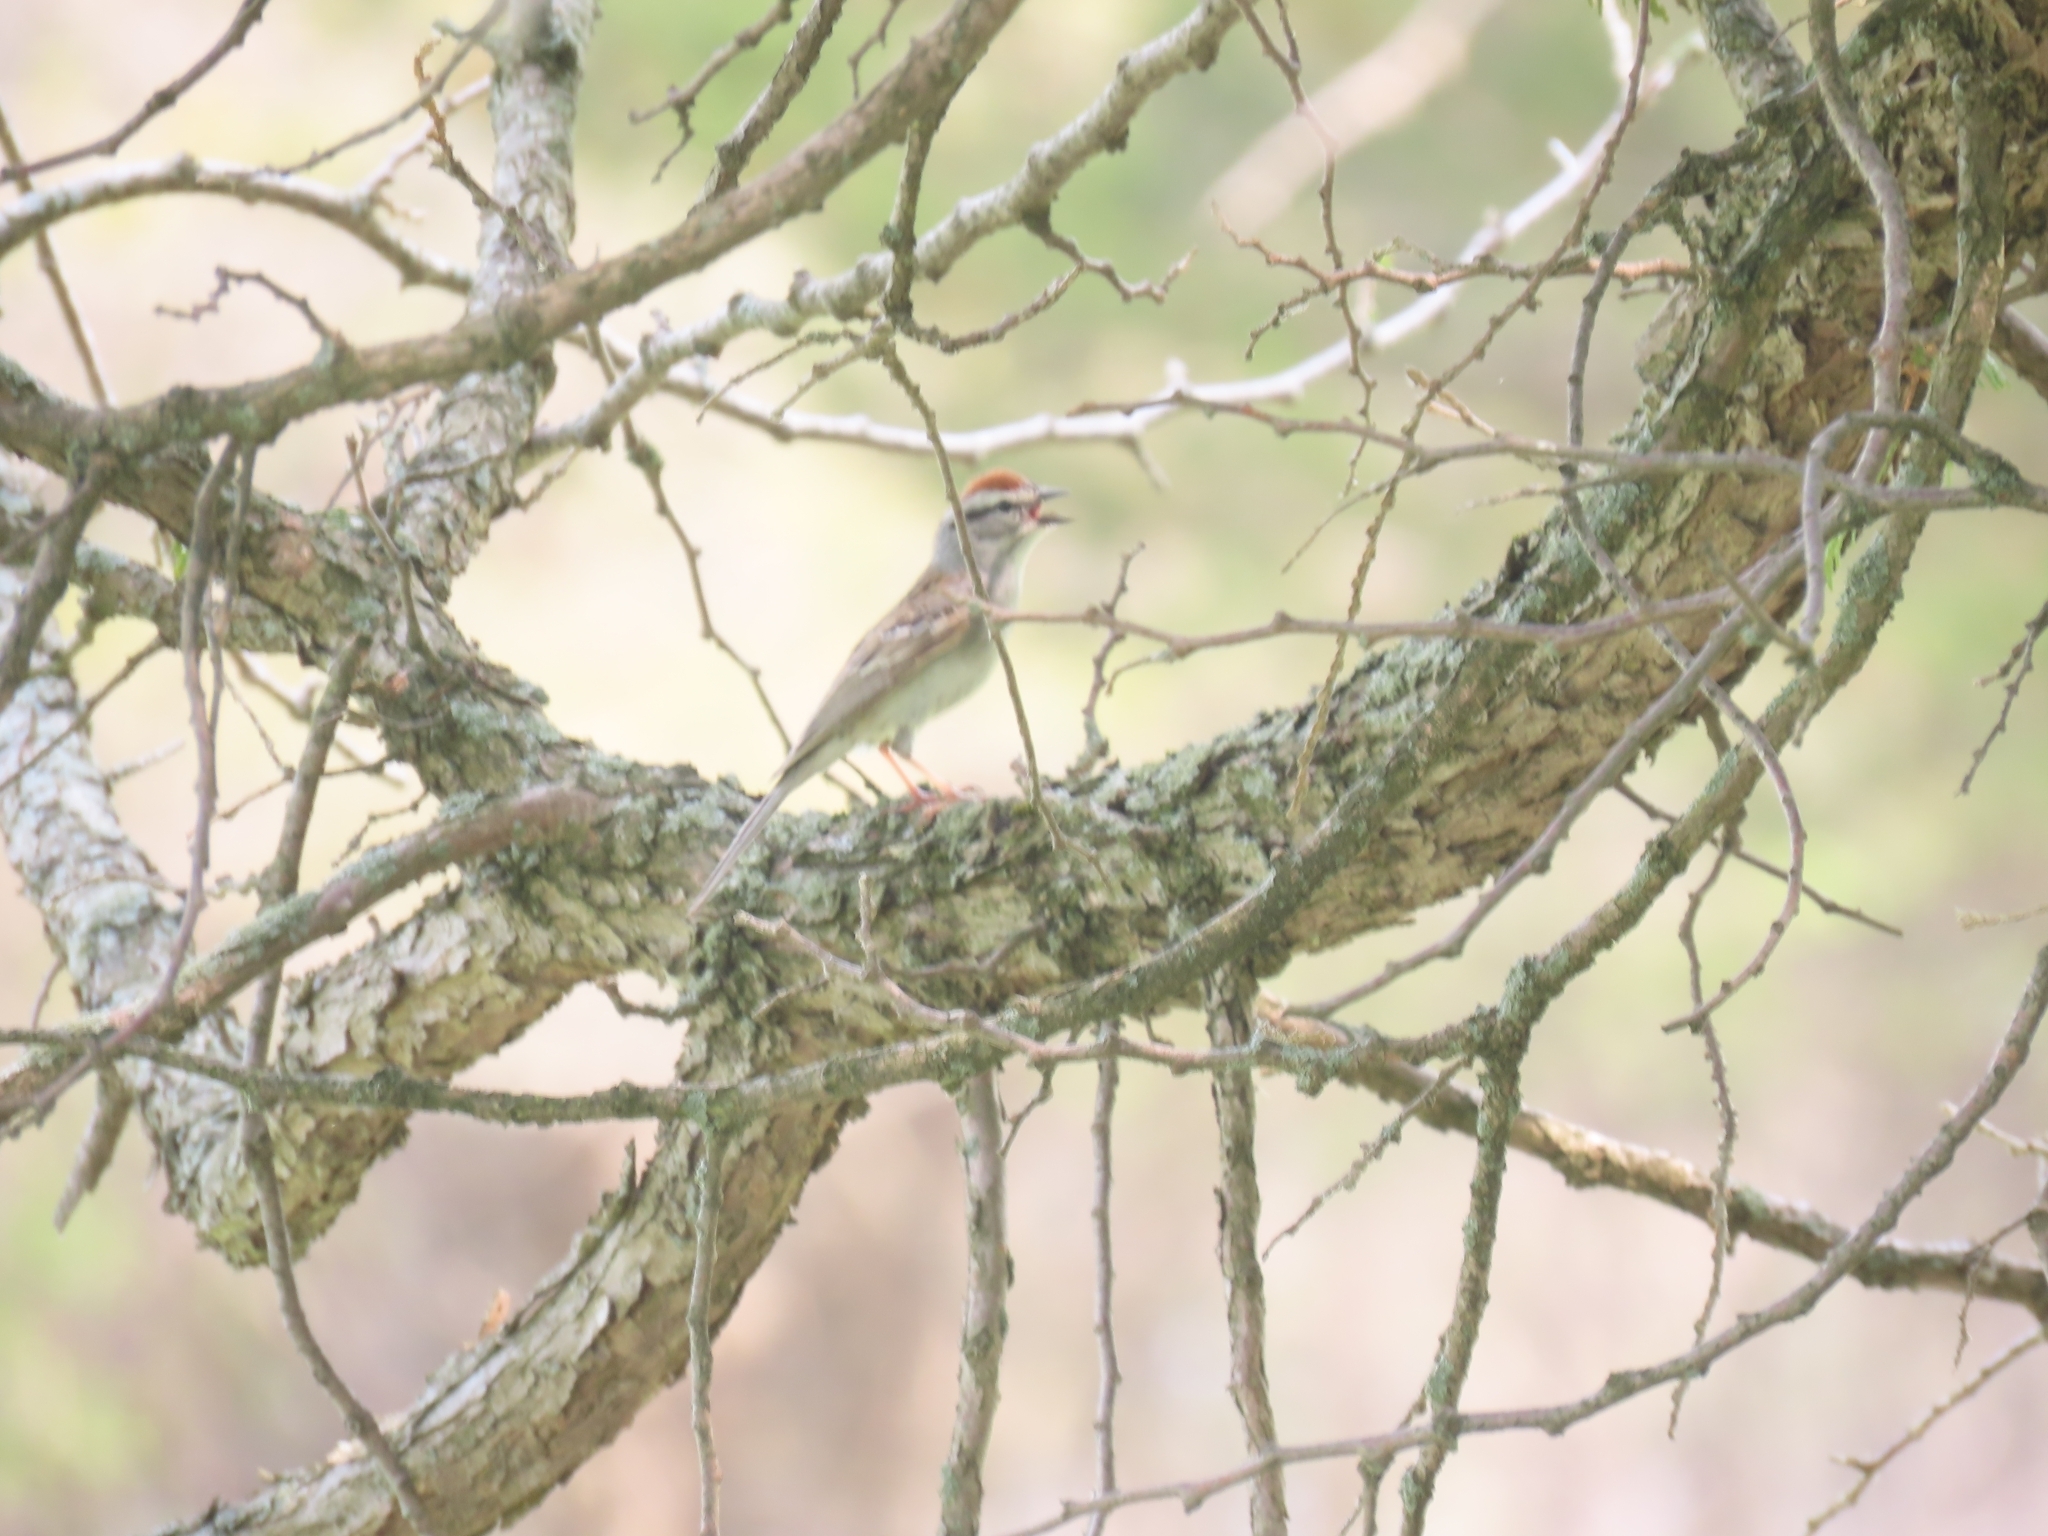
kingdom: Animalia
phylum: Chordata
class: Aves
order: Passeriformes
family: Passerellidae
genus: Spizella
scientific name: Spizella passerina
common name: Chipping sparrow
